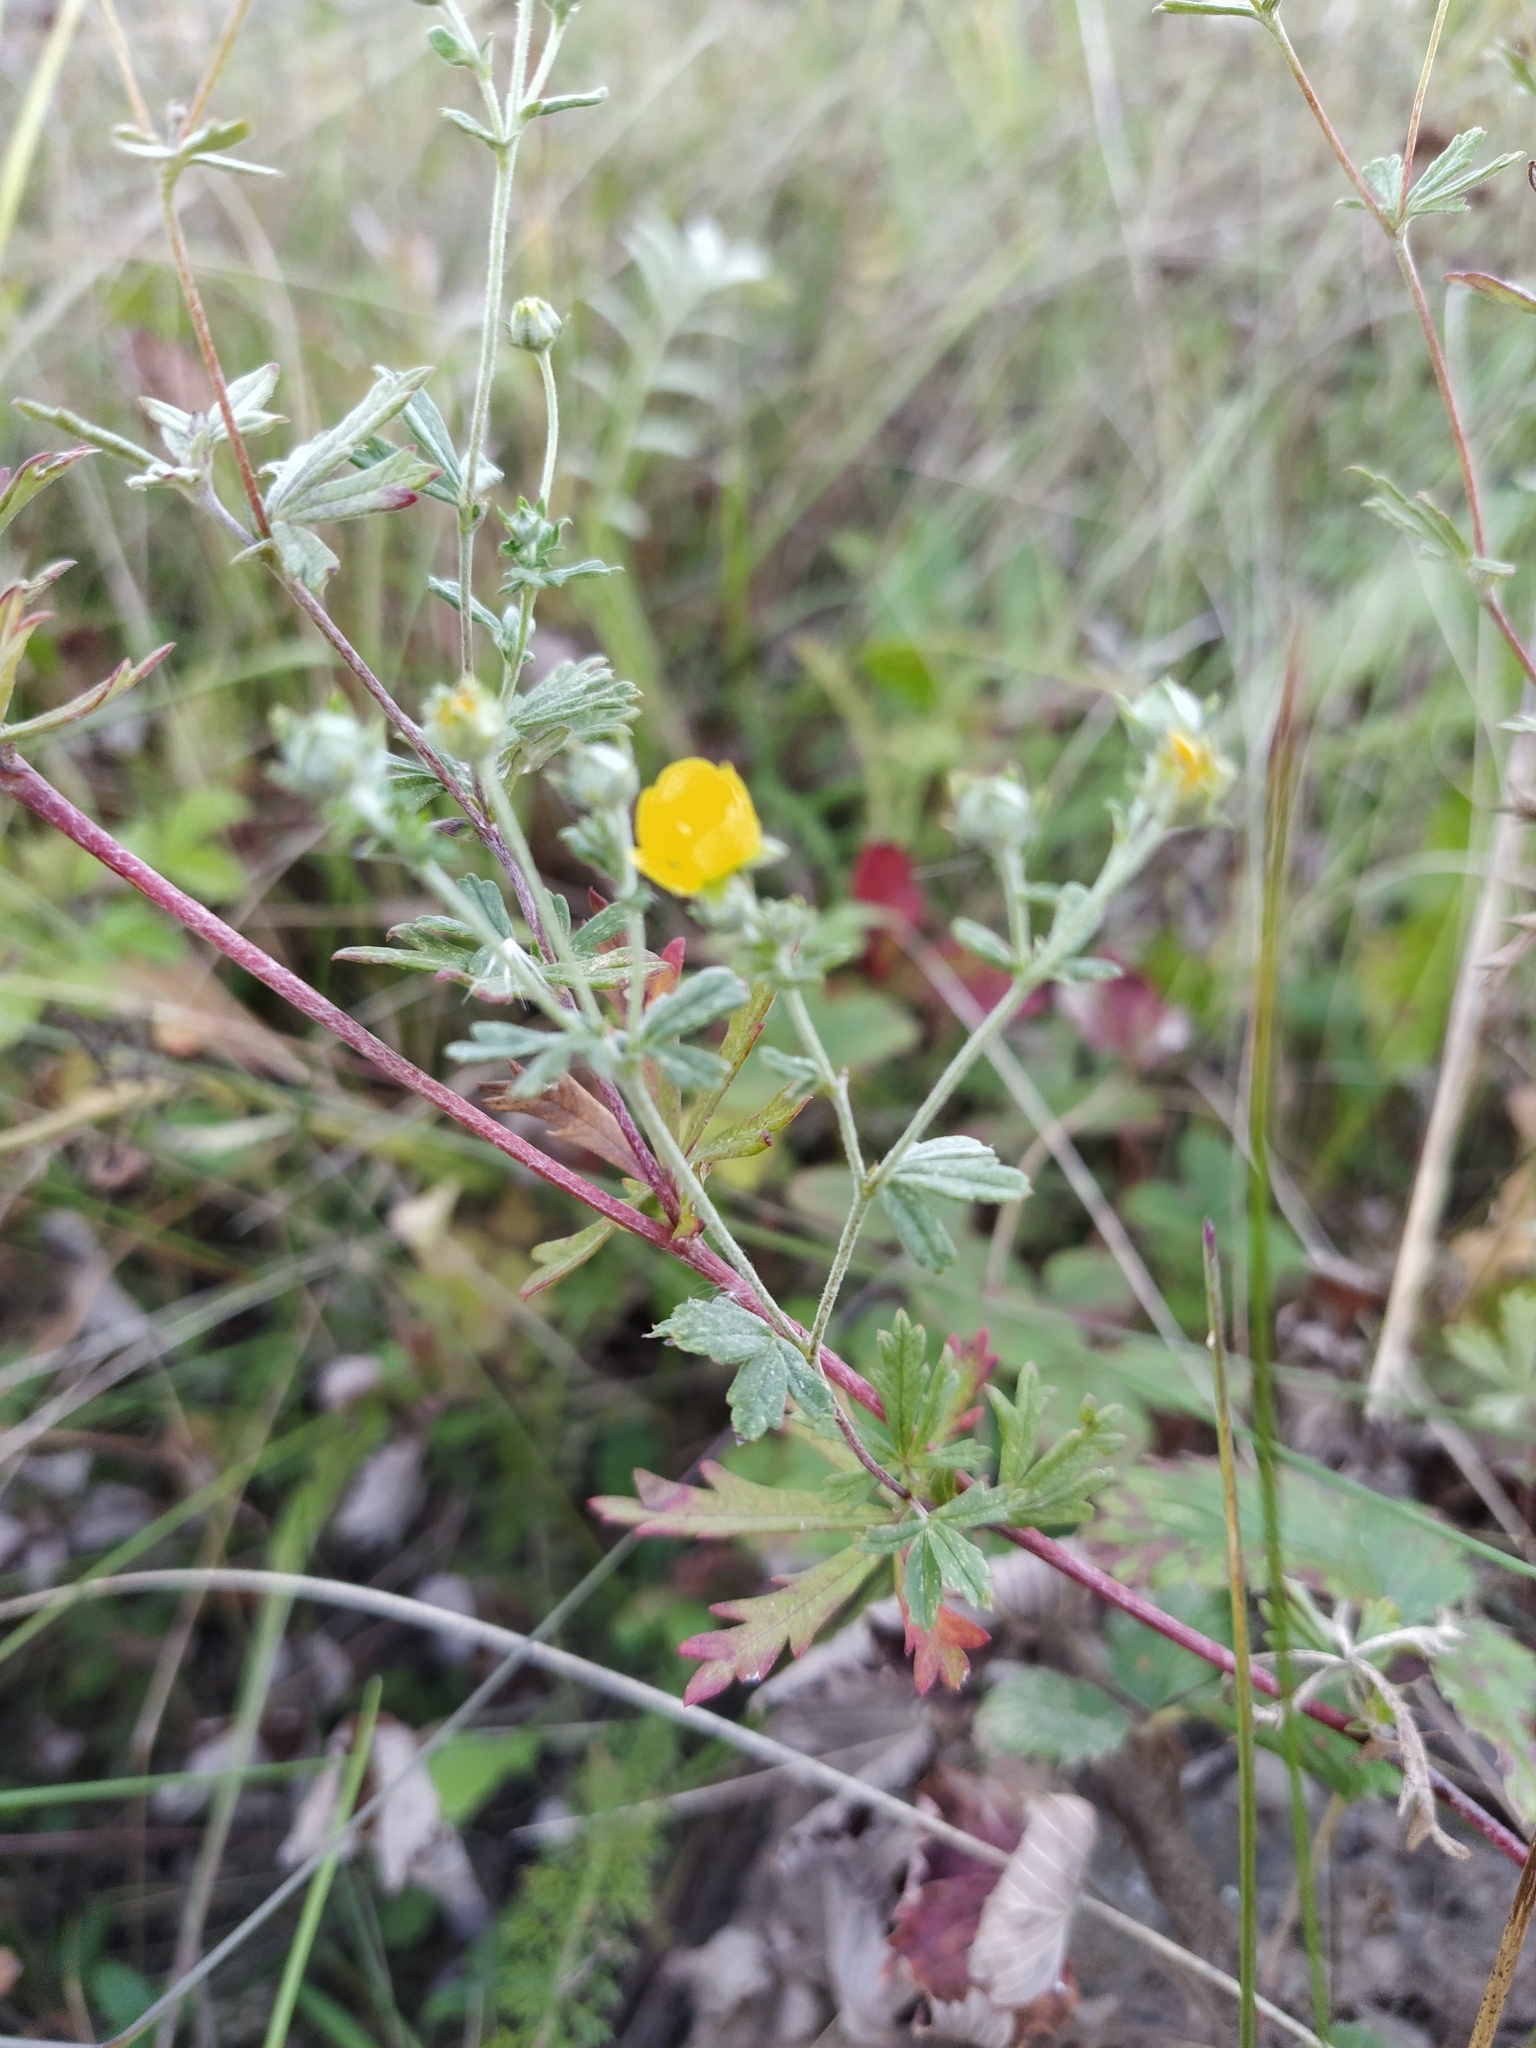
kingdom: Plantae
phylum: Tracheophyta
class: Magnoliopsida
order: Rosales
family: Rosaceae
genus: Potentilla
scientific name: Potentilla argentea
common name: Hoary cinquefoil
